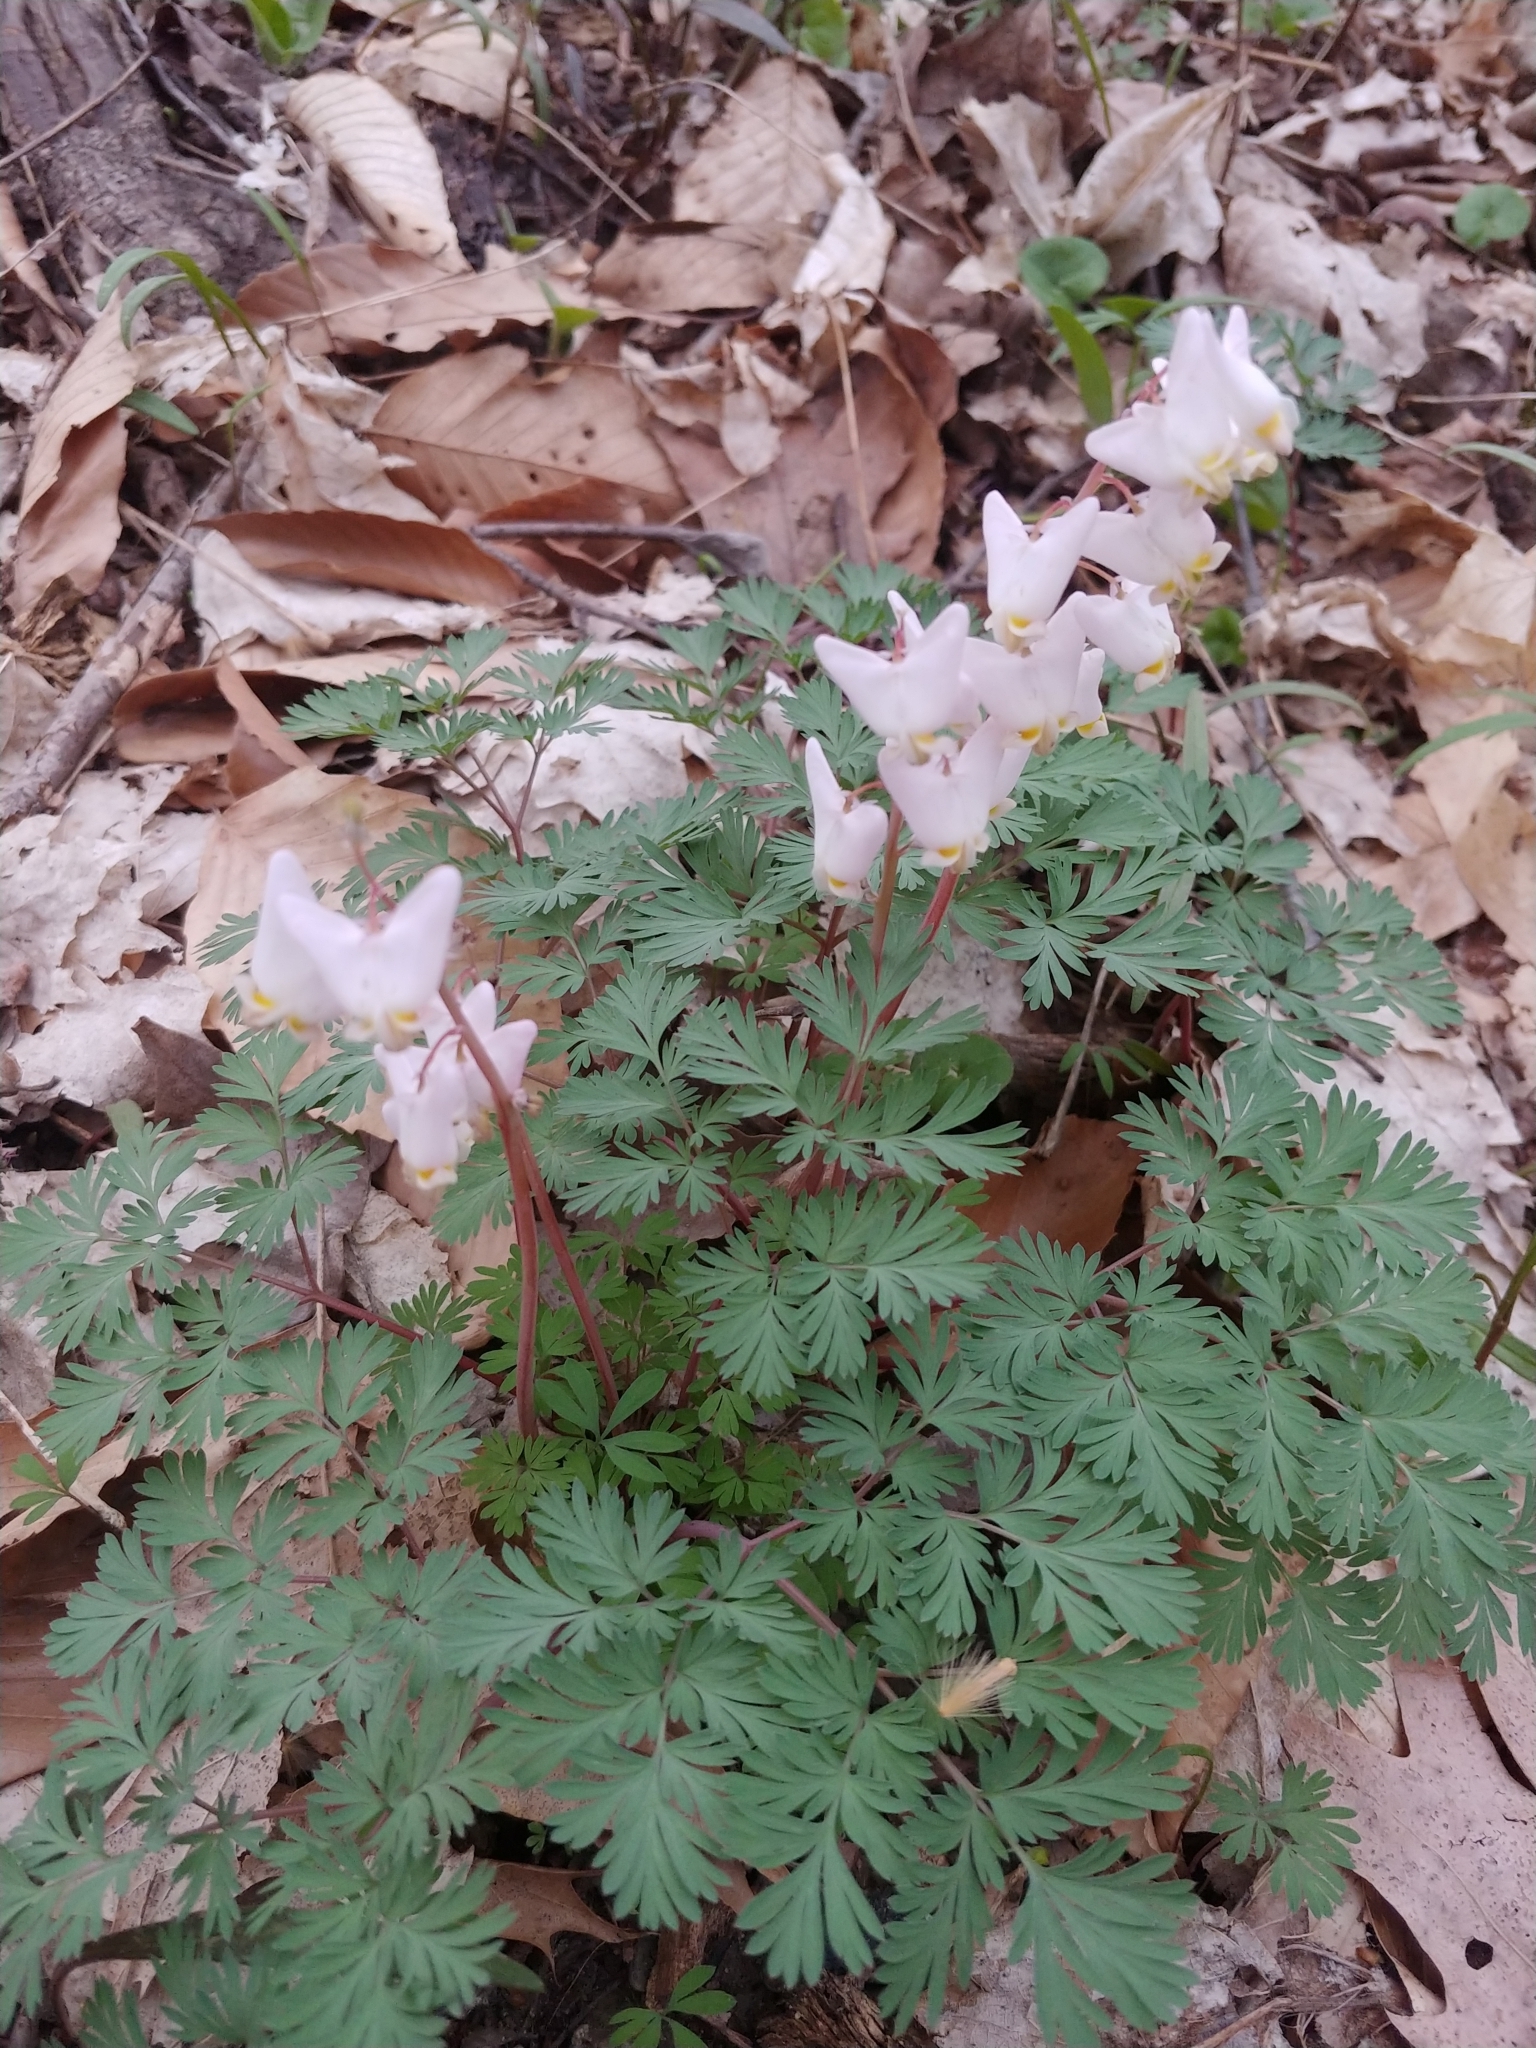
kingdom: Plantae
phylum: Tracheophyta
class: Magnoliopsida
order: Ranunculales
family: Papaveraceae
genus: Dicentra
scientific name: Dicentra cucullaria
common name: Dutchman's breeches
